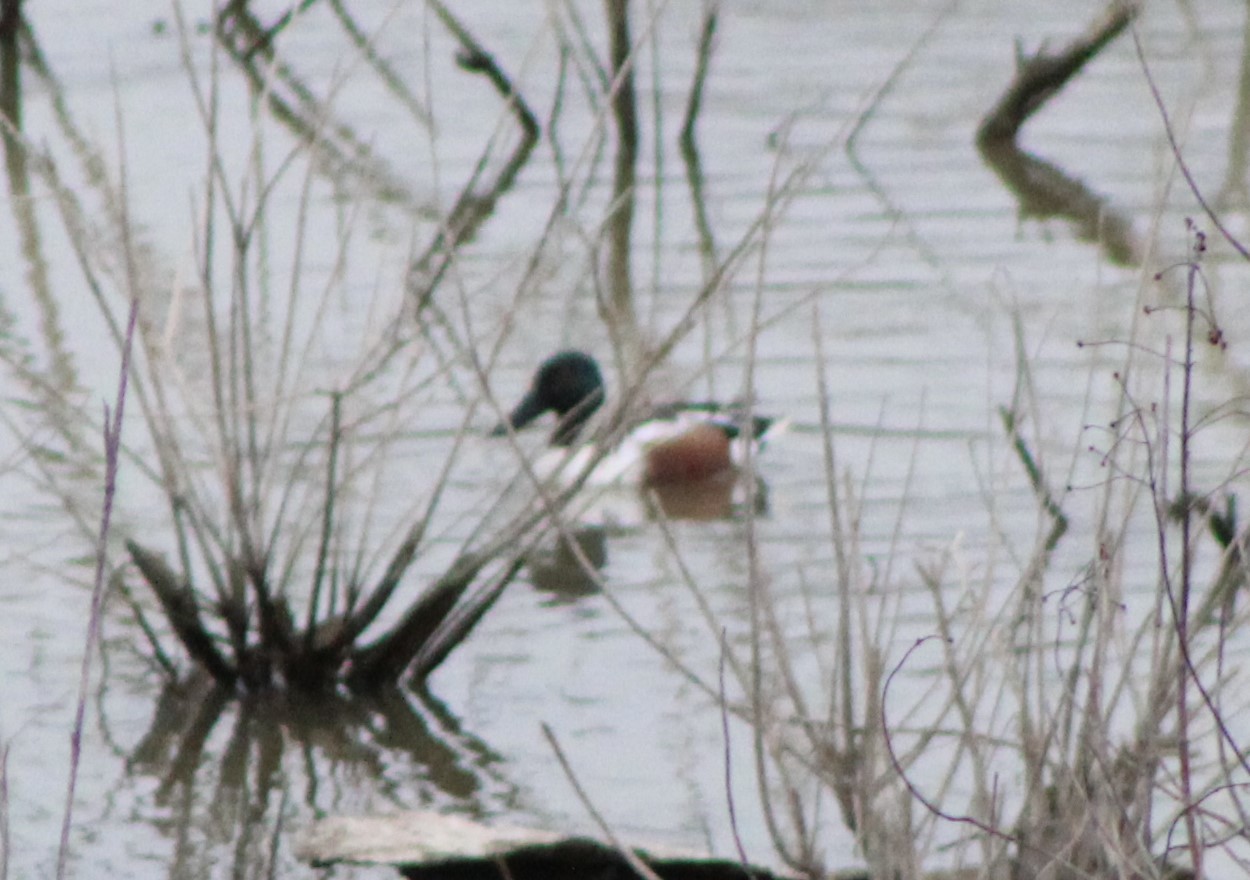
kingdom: Animalia
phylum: Chordata
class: Aves
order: Anseriformes
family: Anatidae
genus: Spatula
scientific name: Spatula clypeata
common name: Northern shoveler
